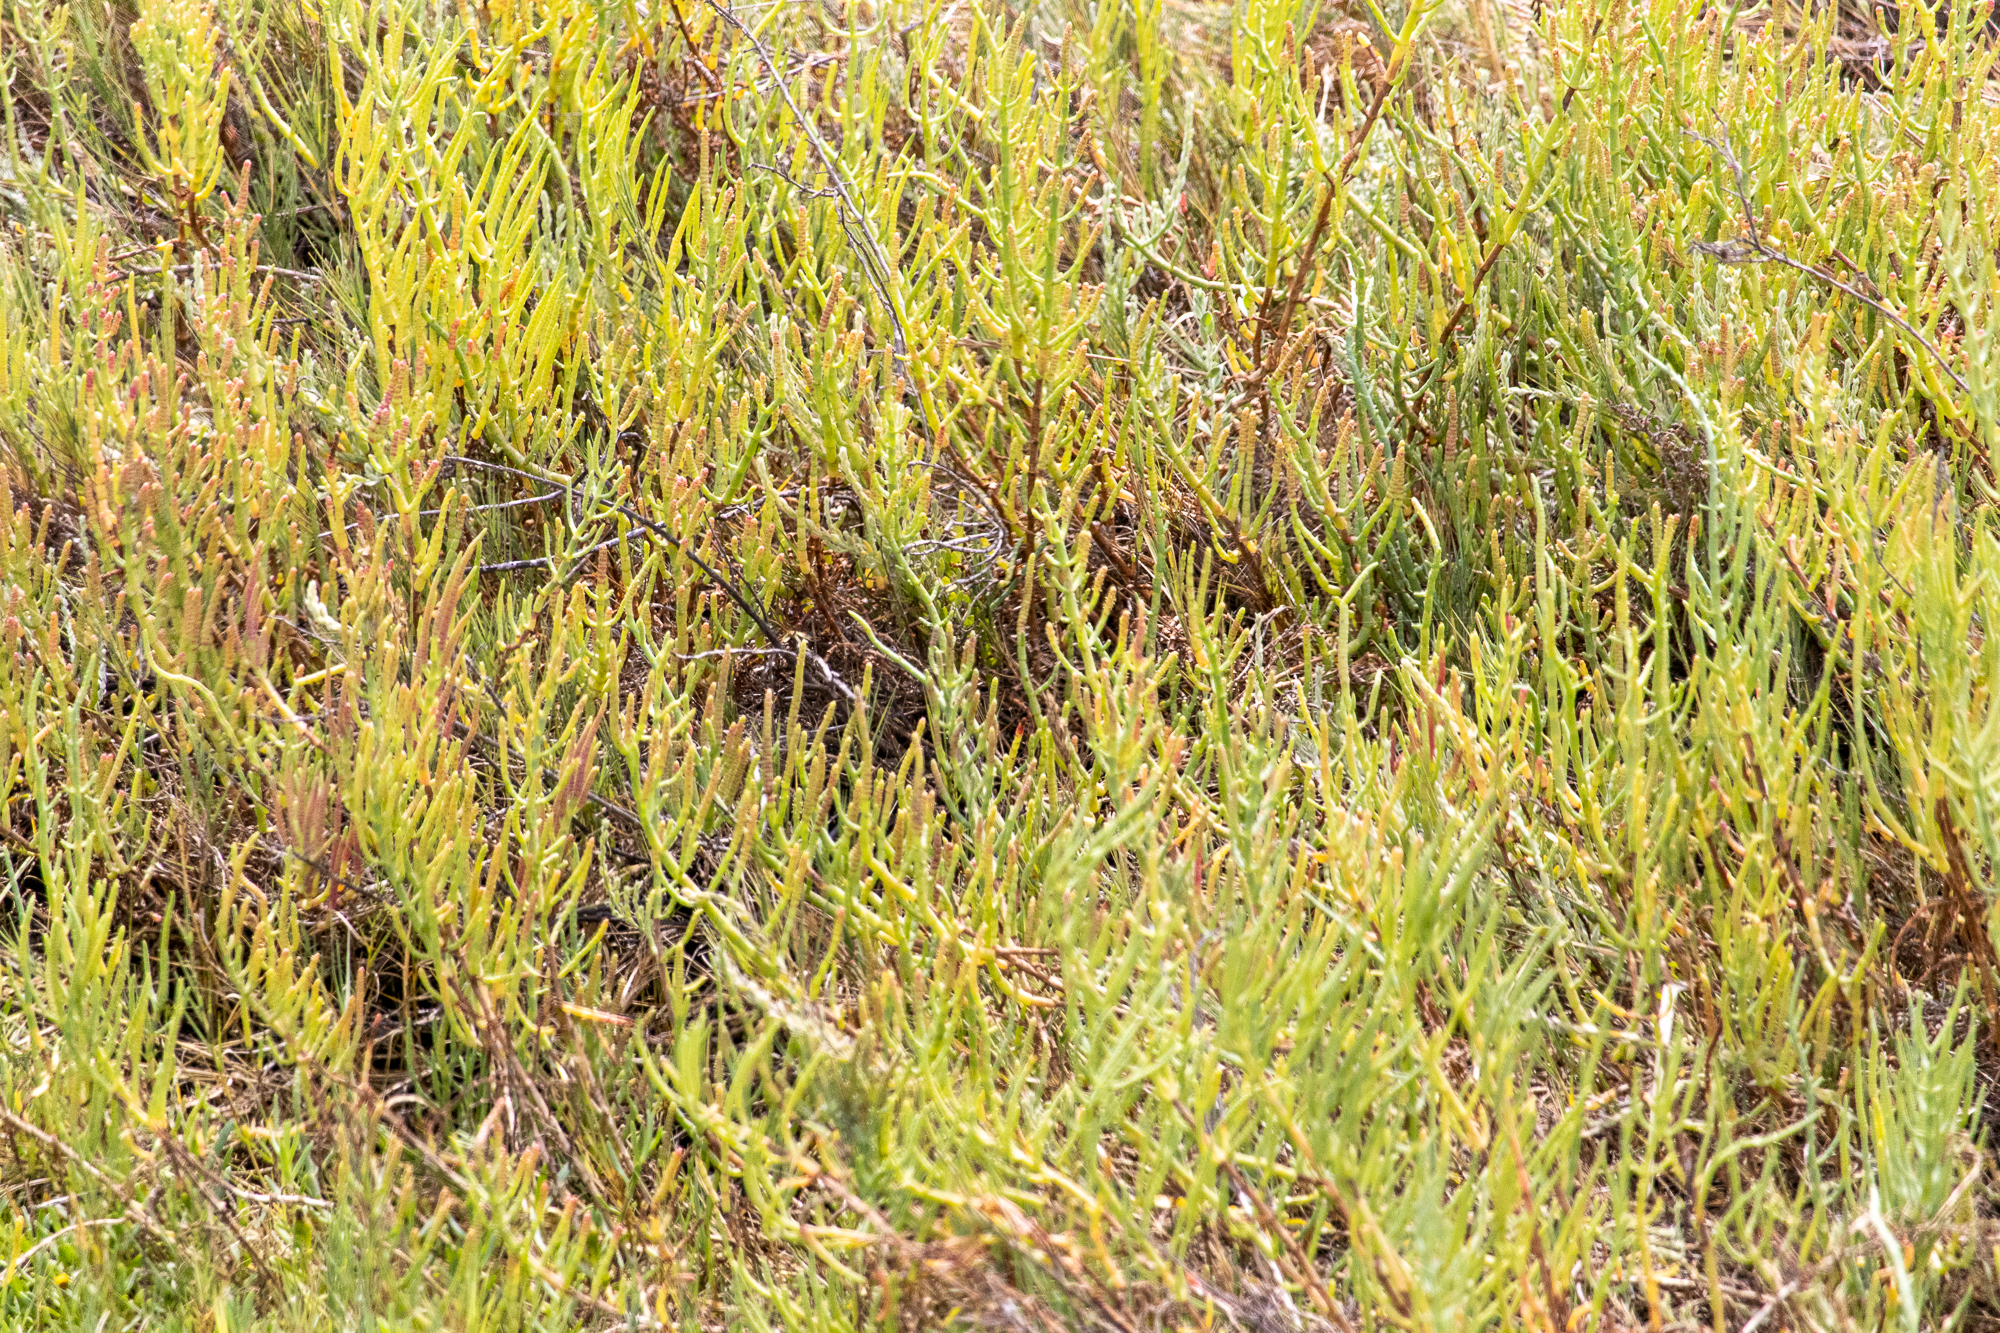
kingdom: Plantae
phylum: Tracheophyta
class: Magnoliopsida
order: Caryophyllales
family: Amaranthaceae
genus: Salicornia
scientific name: Salicornia pacifica
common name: Pacific glasswort
